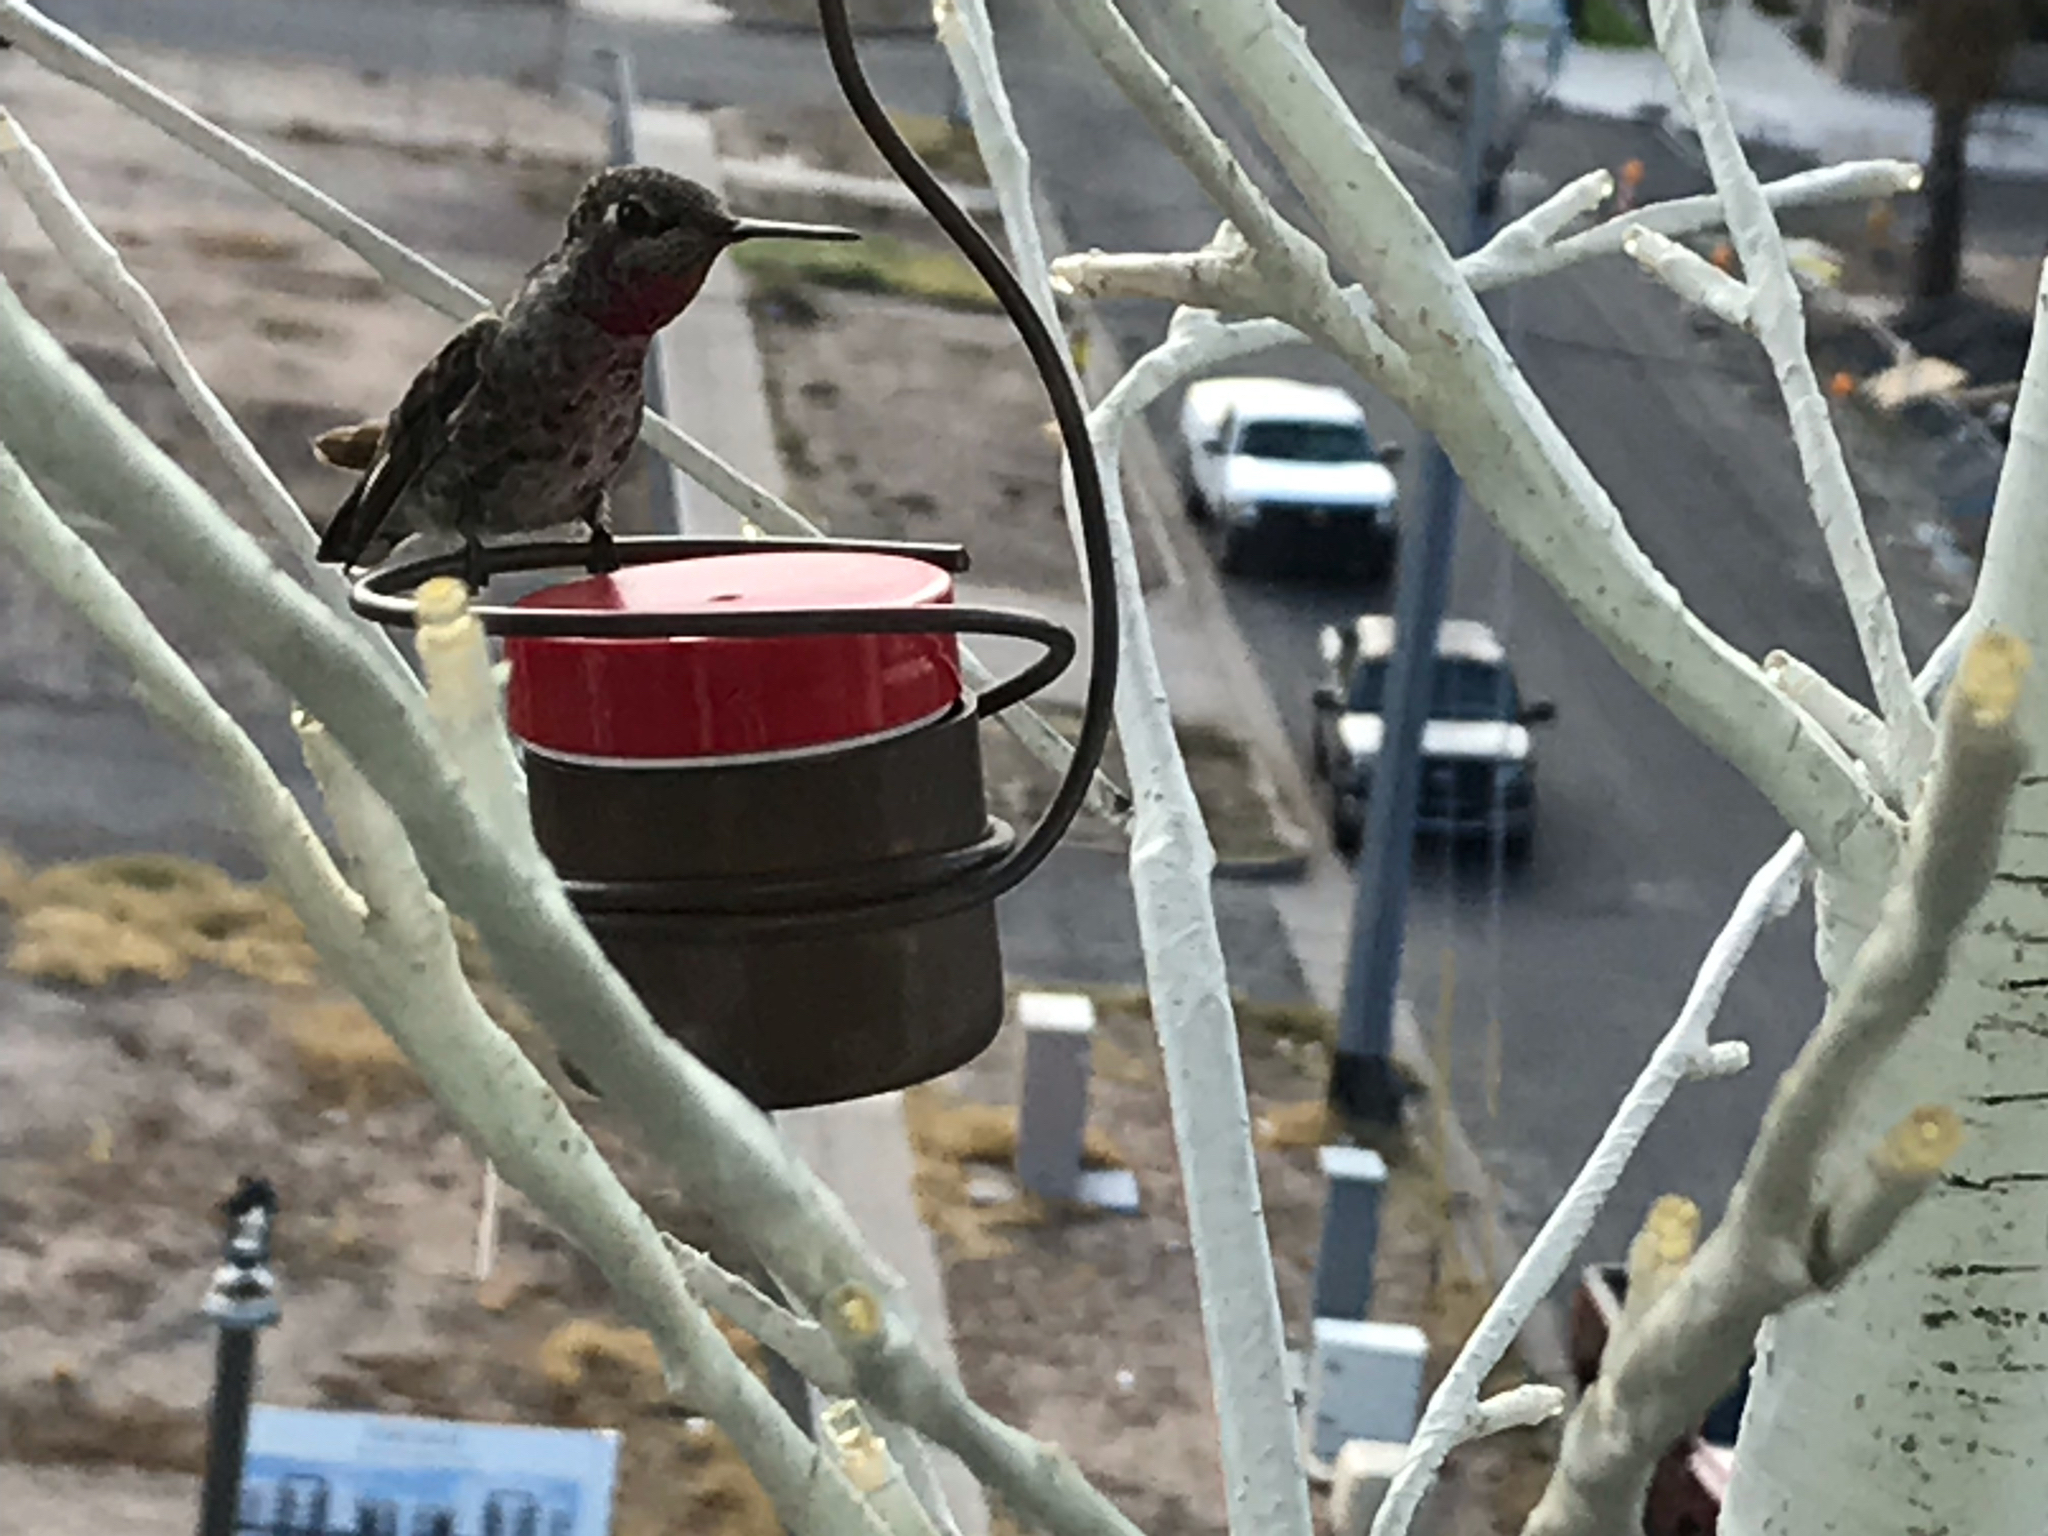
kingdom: Animalia
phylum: Chordata
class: Aves
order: Apodiformes
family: Trochilidae
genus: Calypte
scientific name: Calypte anna
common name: Anna's hummingbird
